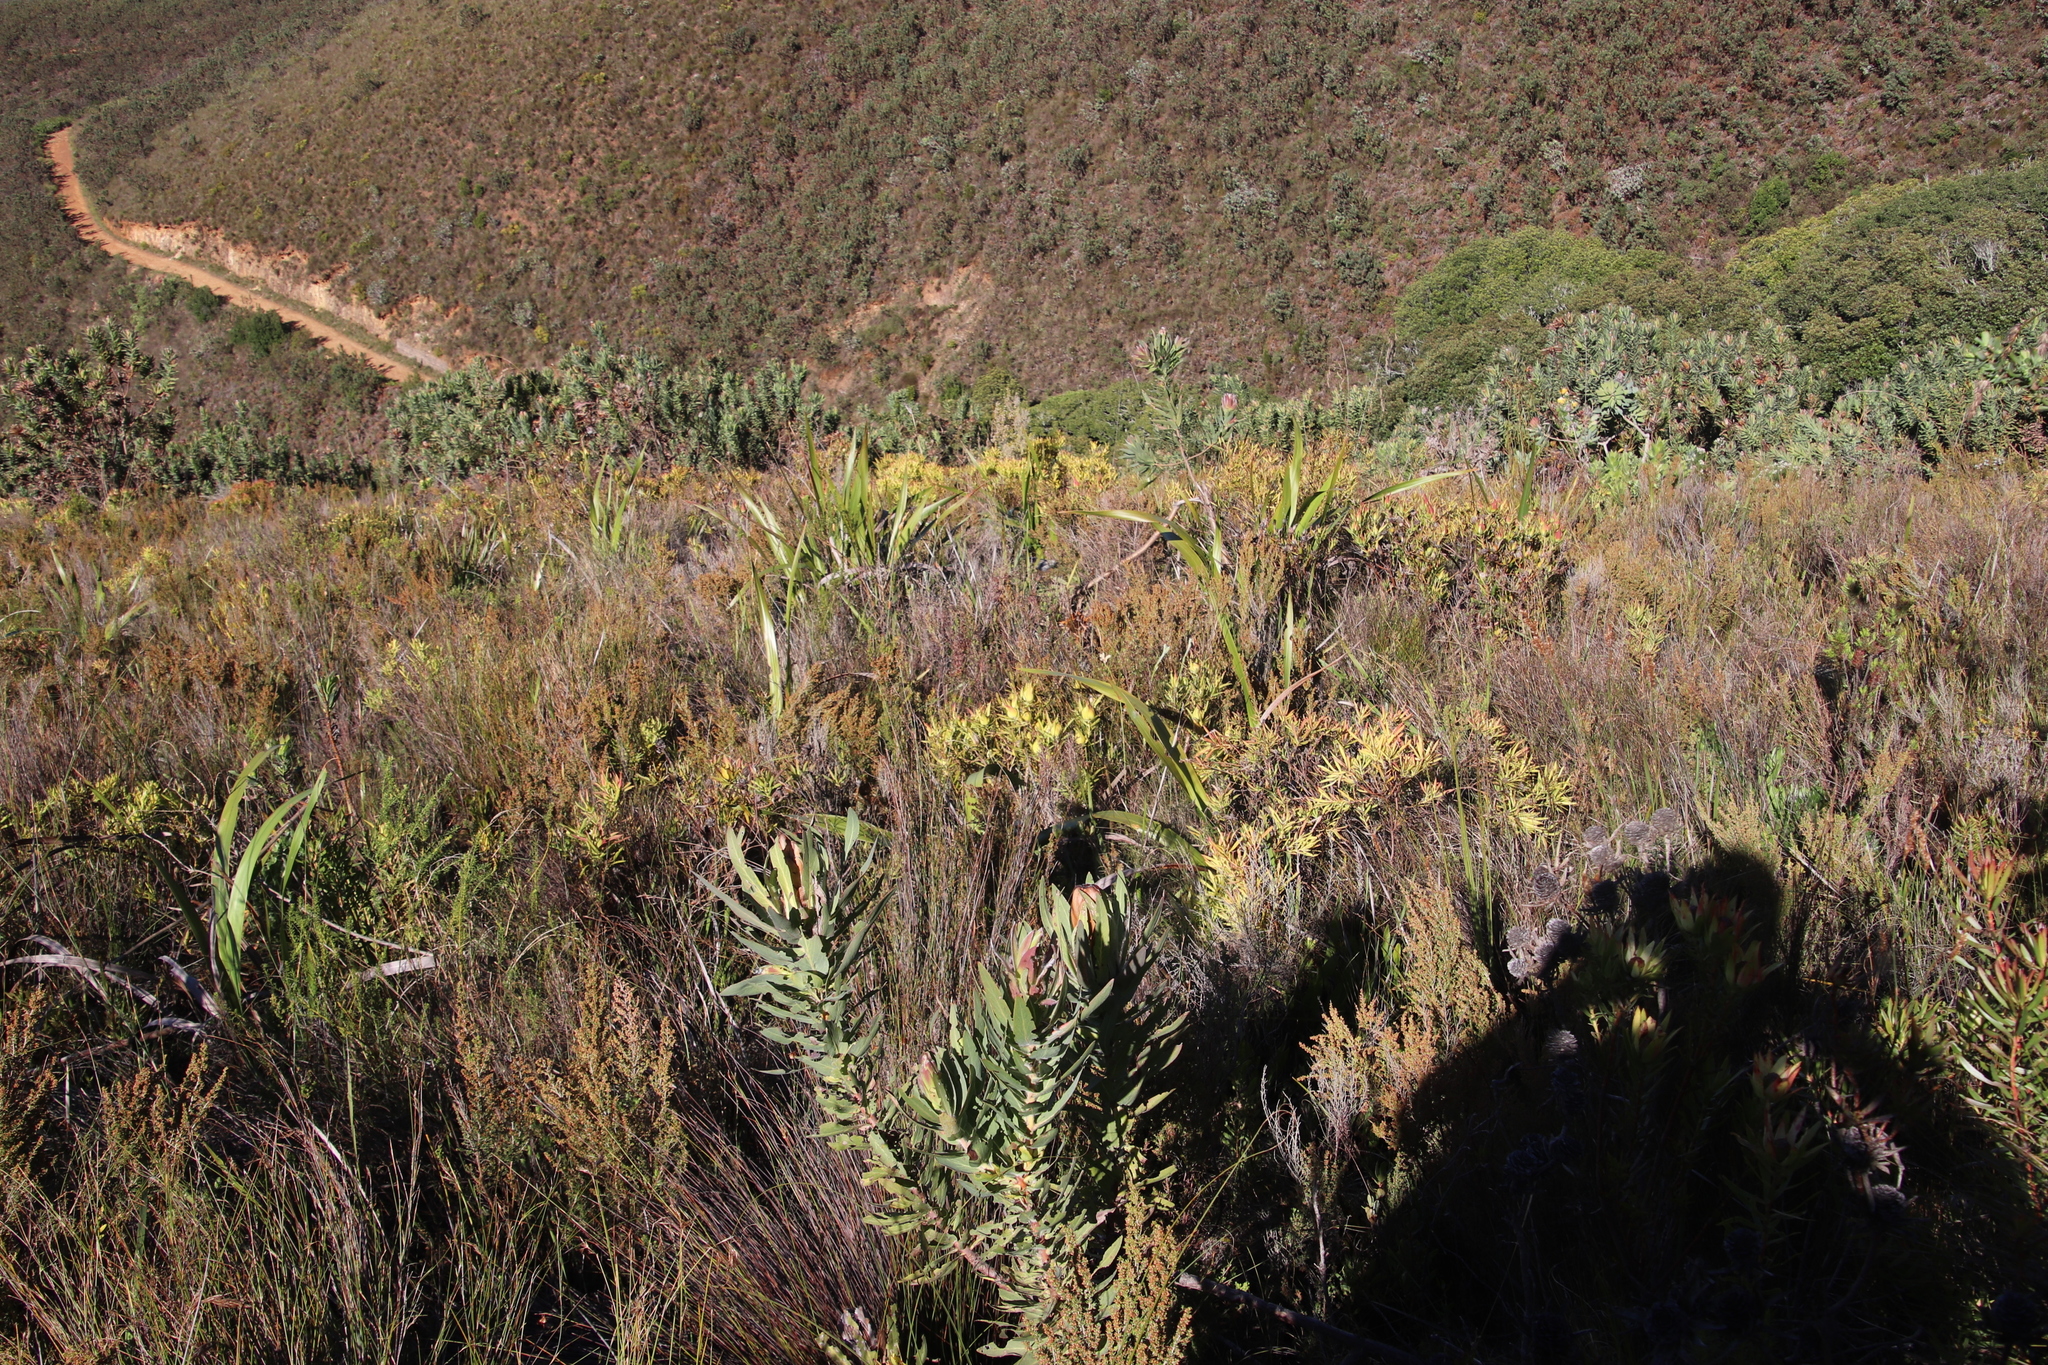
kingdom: Plantae
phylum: Tracheophyta
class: Magnoliopsida
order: Proteales
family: Proteaceae
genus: Leucadendron
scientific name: Leucadendron salignum
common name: Common sunshine conebush
